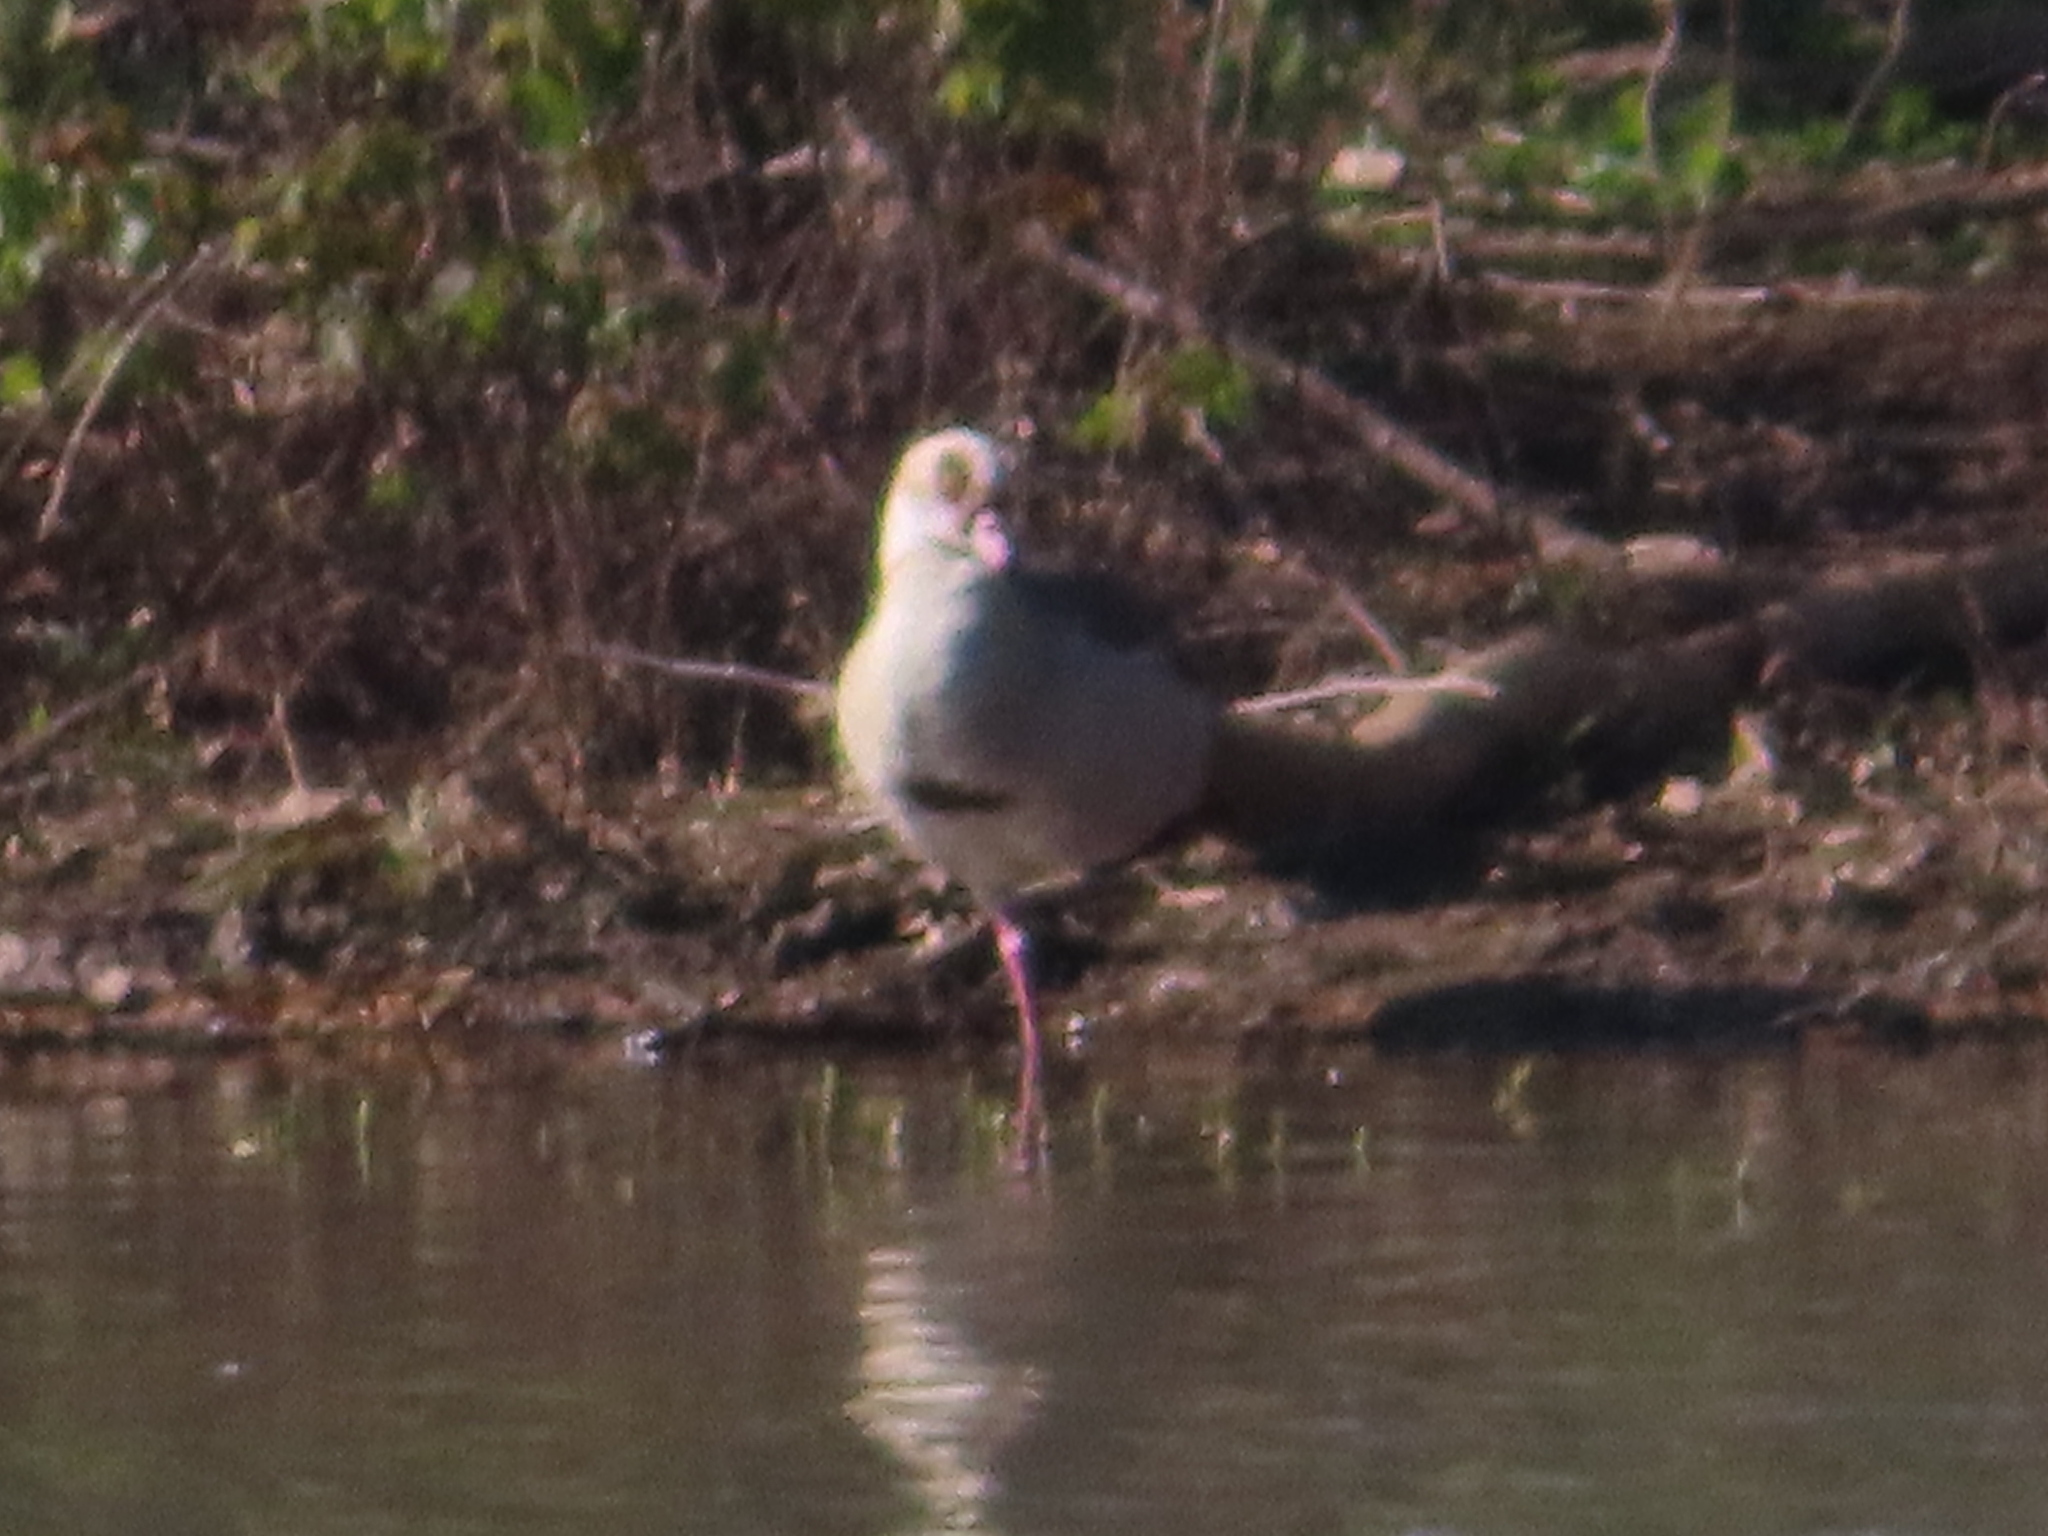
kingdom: Animalia
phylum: Chordata
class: Aves
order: Anseriformes
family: Anatidae
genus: Alopochen
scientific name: Alopochen aegyptiaca
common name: Egyptian goose
